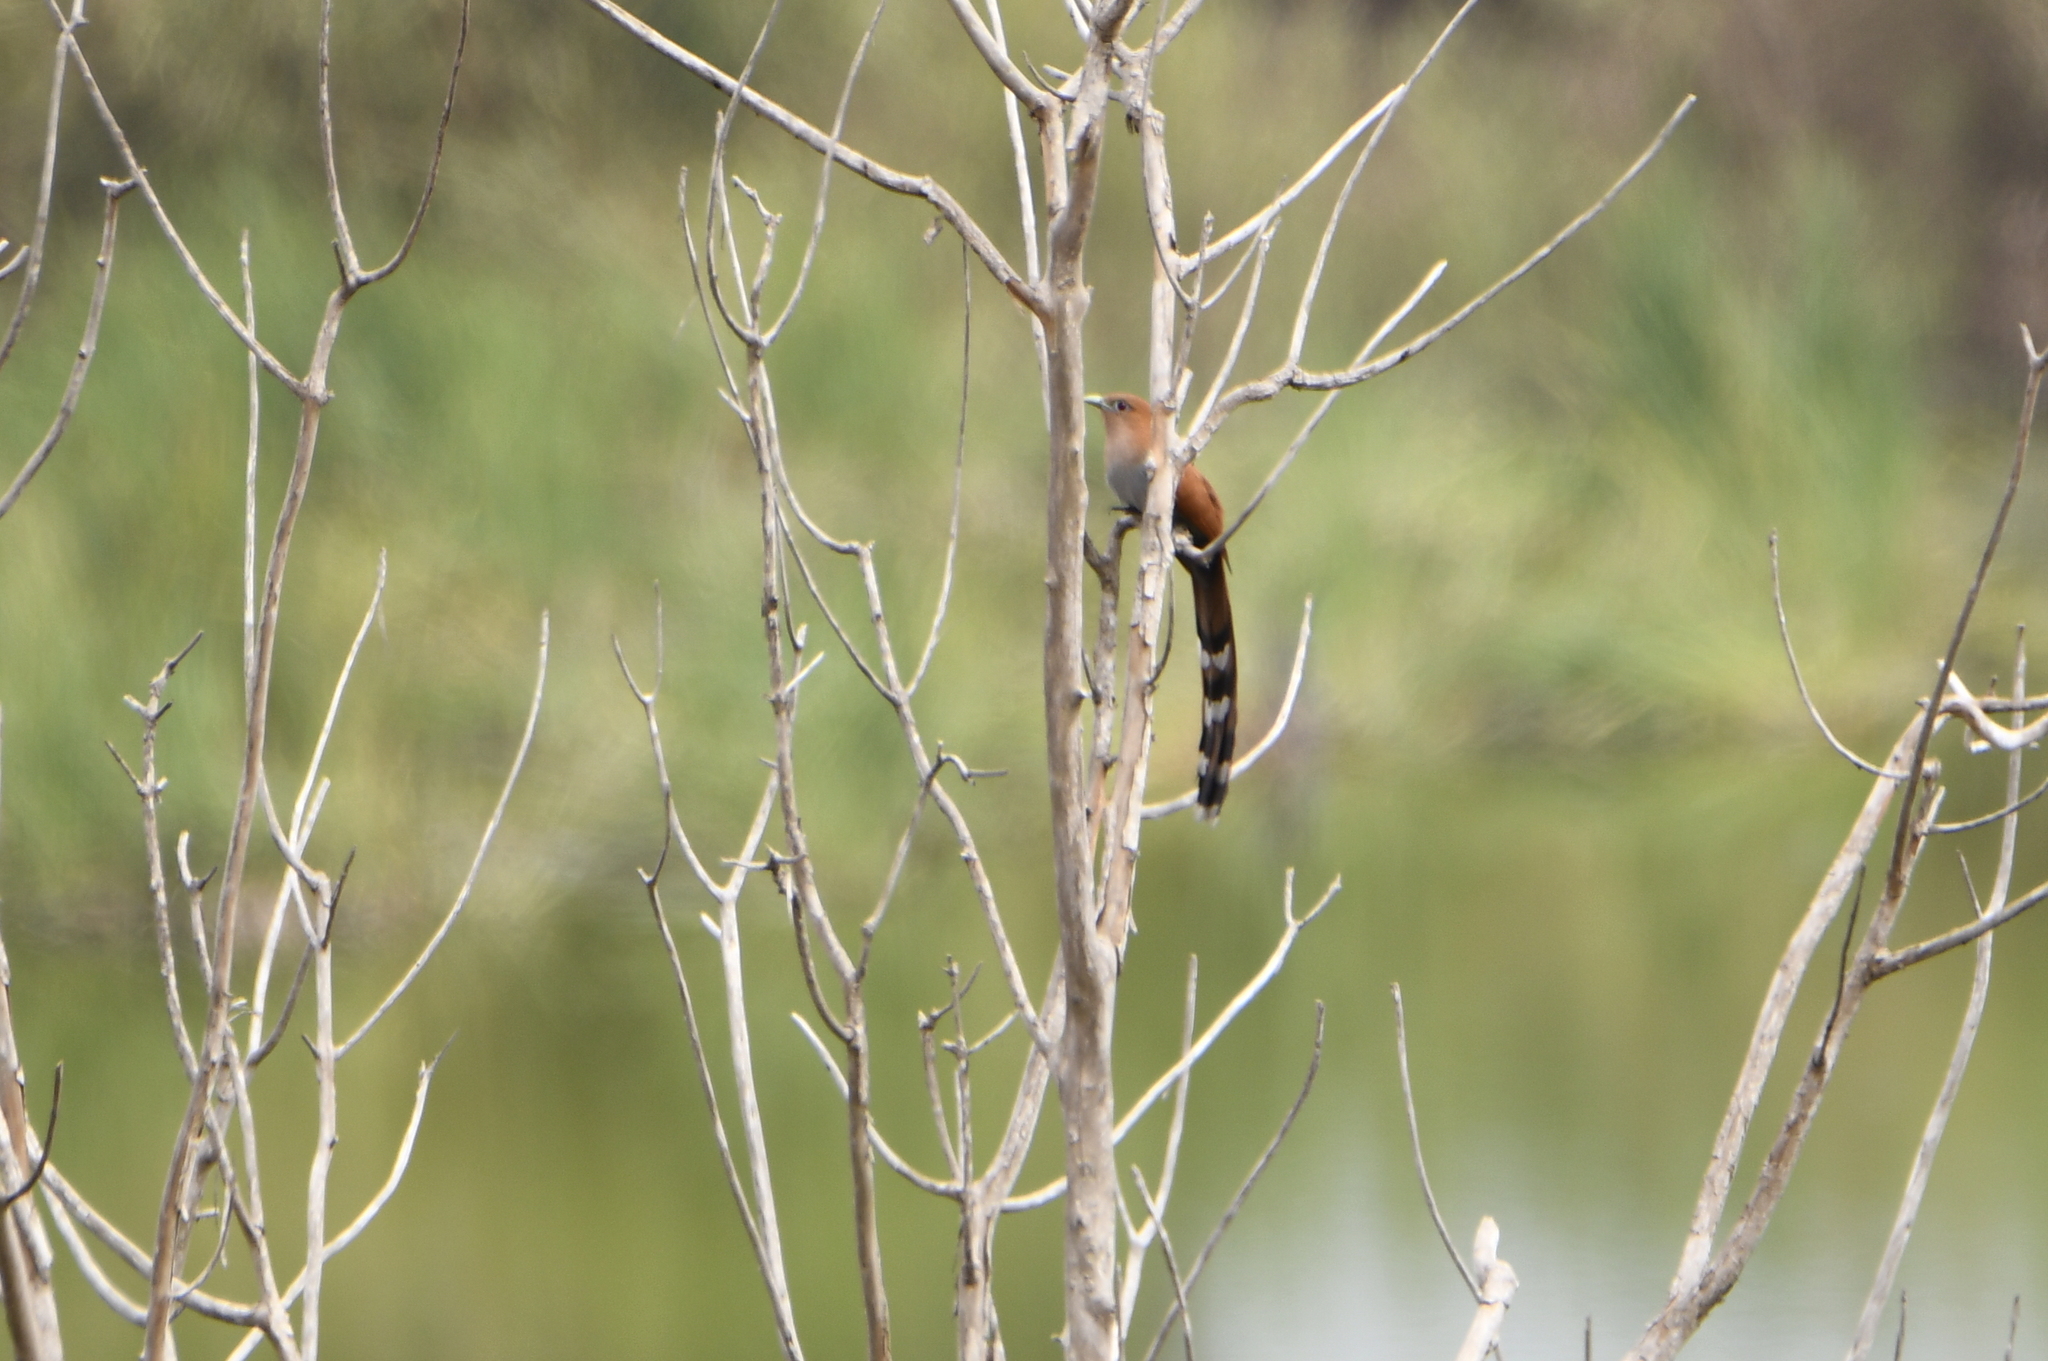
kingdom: Animalia
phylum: Chordata
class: Aves
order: Cuculiformes
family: Cuculidae
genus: Piaya
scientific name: Piaya cayana
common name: Squirrel cuckoo
